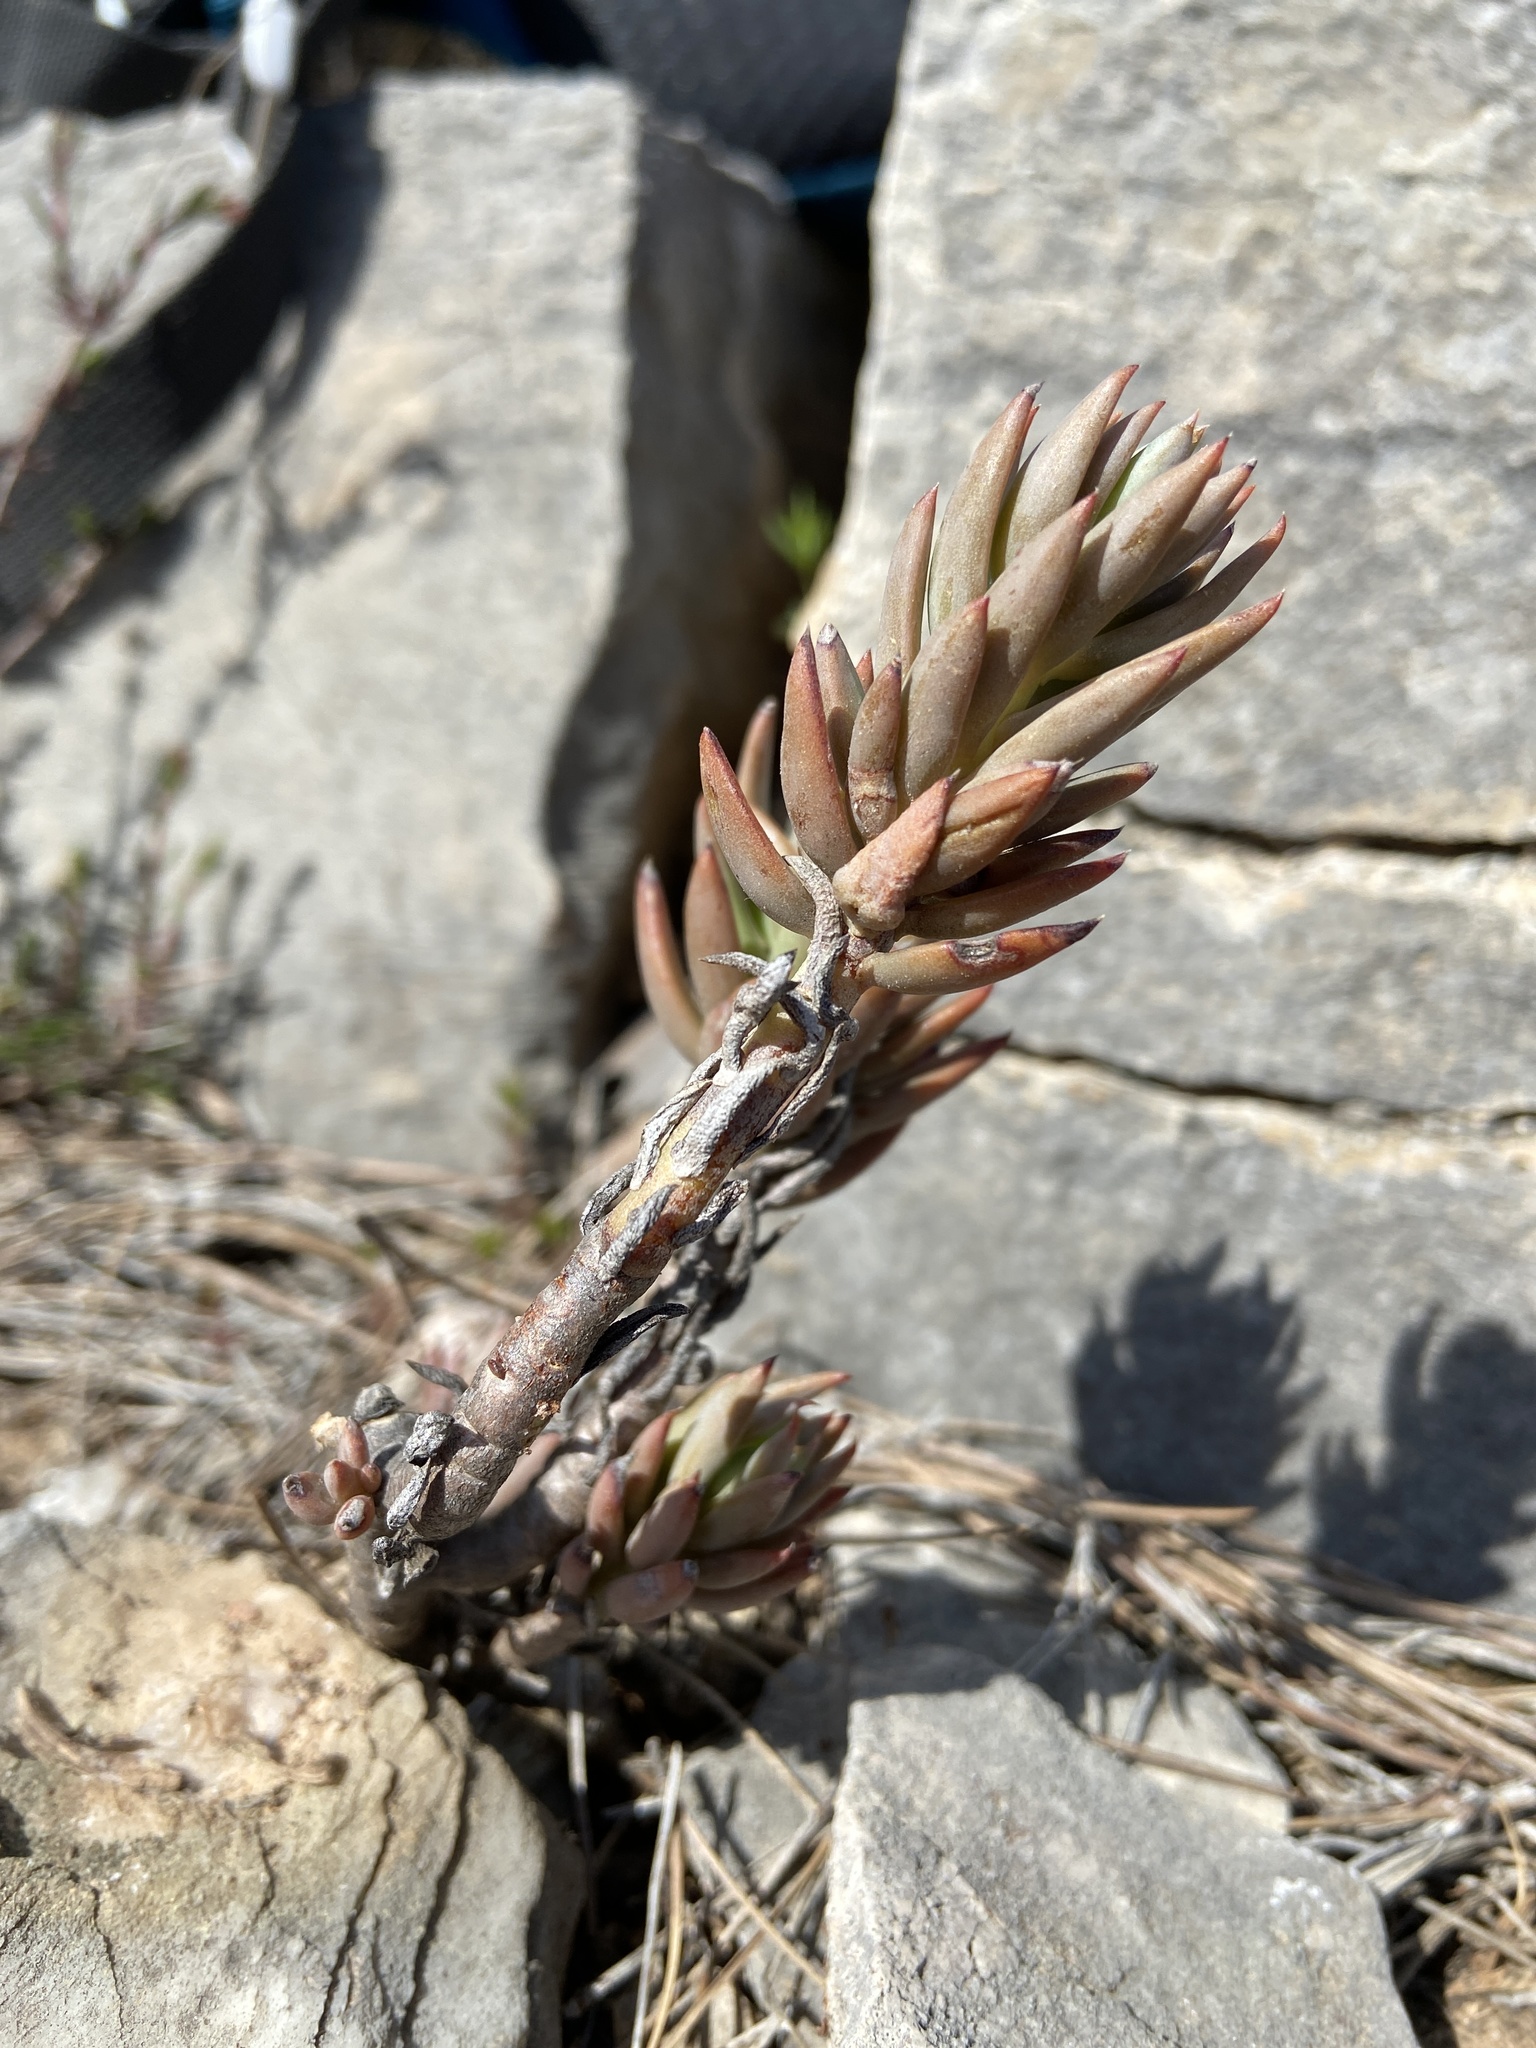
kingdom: Plantae
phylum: Tracheophyta
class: Magnoliopsida
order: Saxifragales
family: Crassulaceae
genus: Petrosedum
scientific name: Petrosedum sediforme
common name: Pale stonecrop
